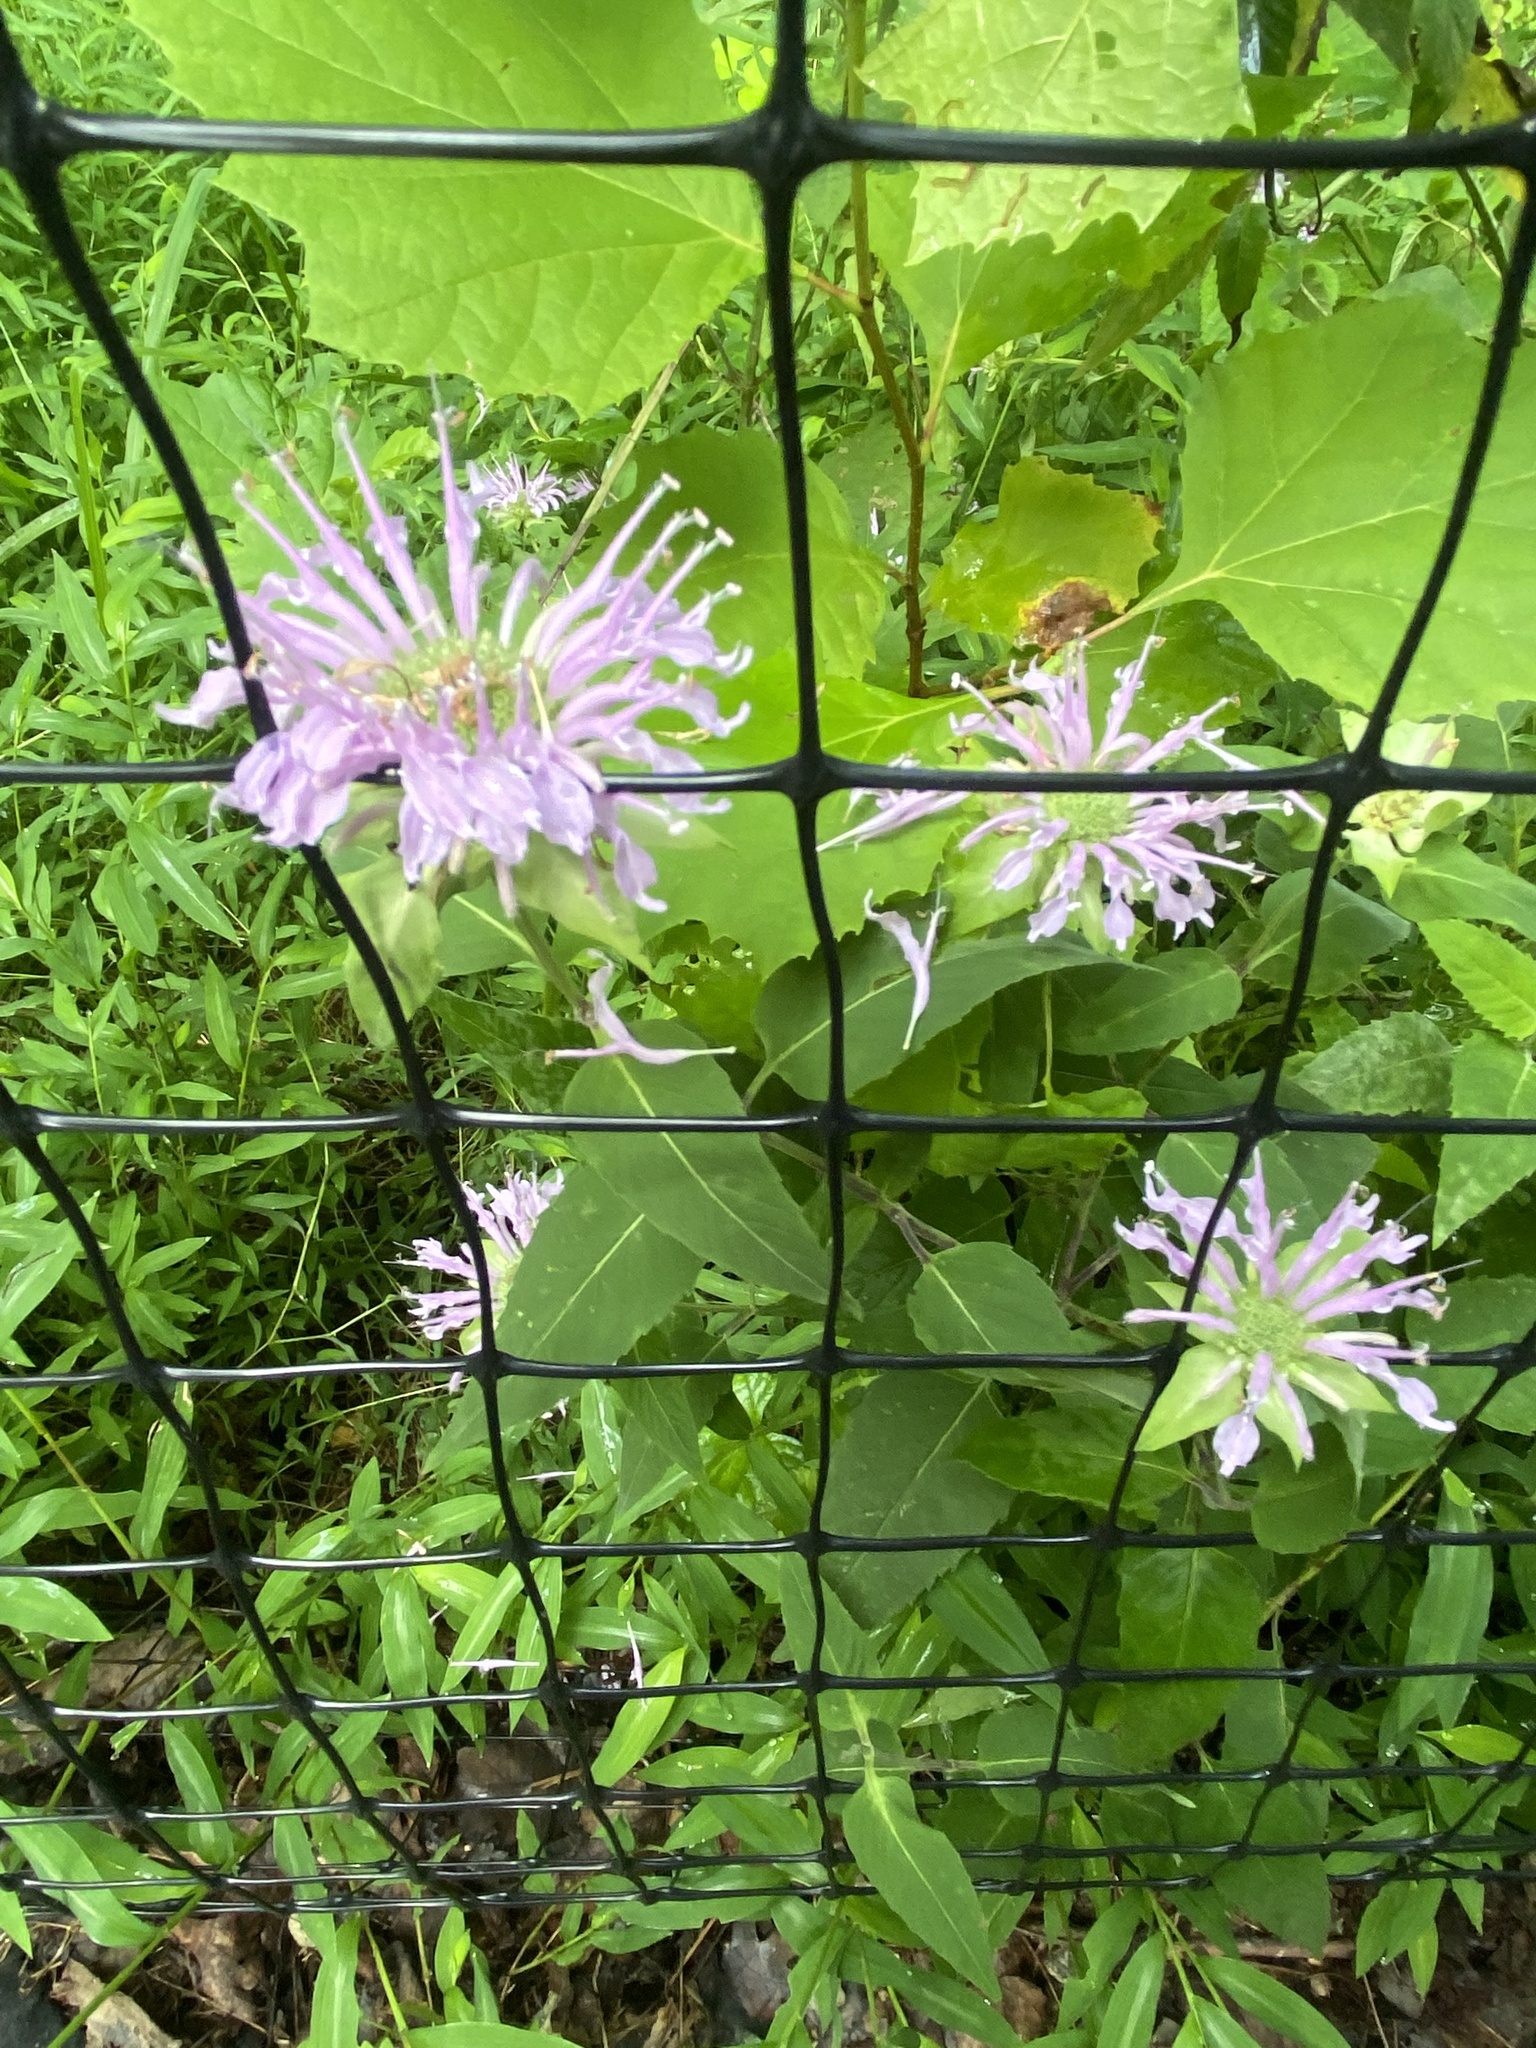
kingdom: Plantae
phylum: Tracheophyta
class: Magnoliopsida
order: Lamiales
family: Lamiaceae
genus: Monarda
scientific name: Monarda fistulosa
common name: Purple beebalm
